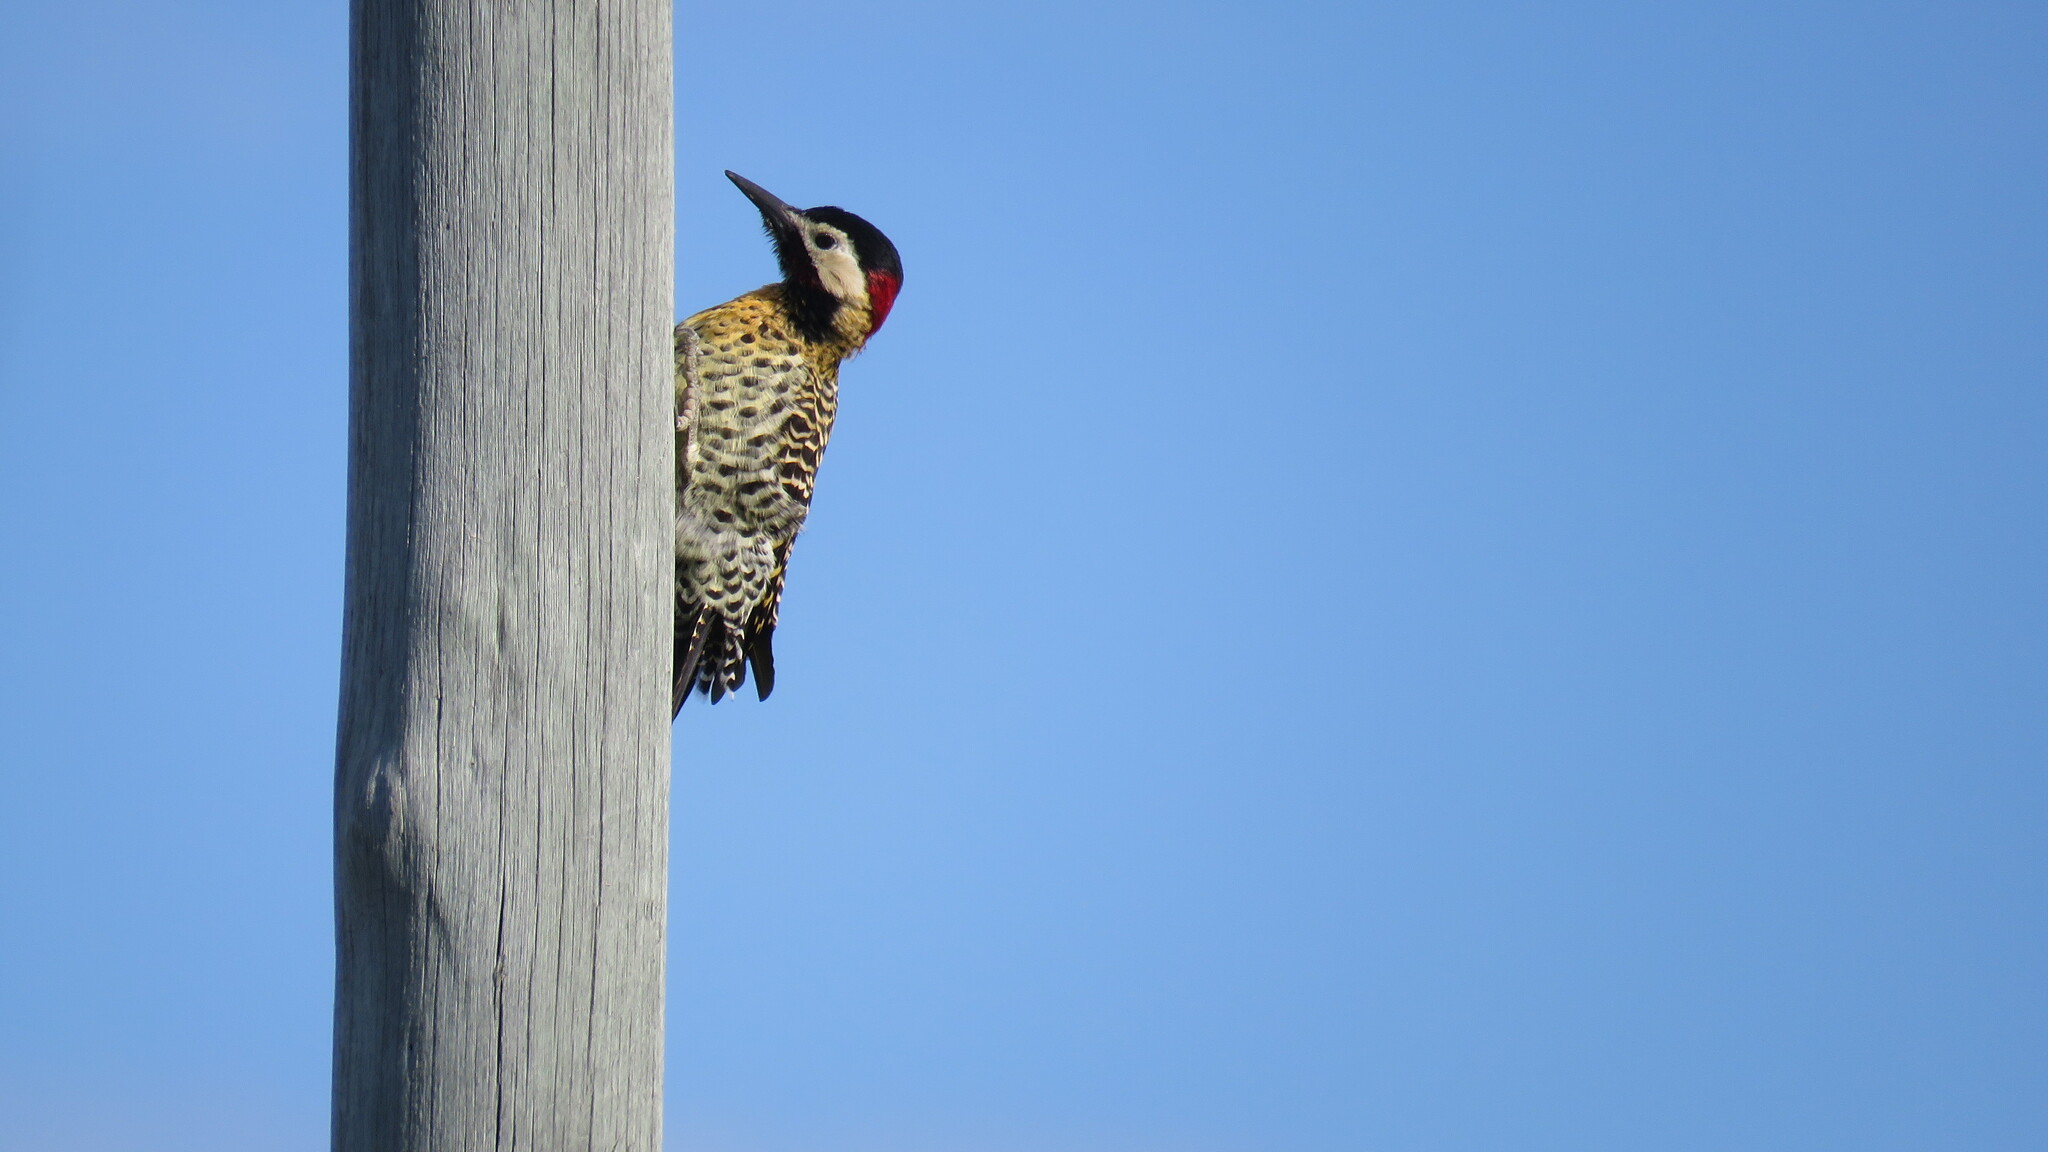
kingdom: Animalia
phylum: Chordata
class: Aves
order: Piciformes
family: Picidae
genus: Colaptes
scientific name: Colaptes melanochloros
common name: Green-barred woodpecker
